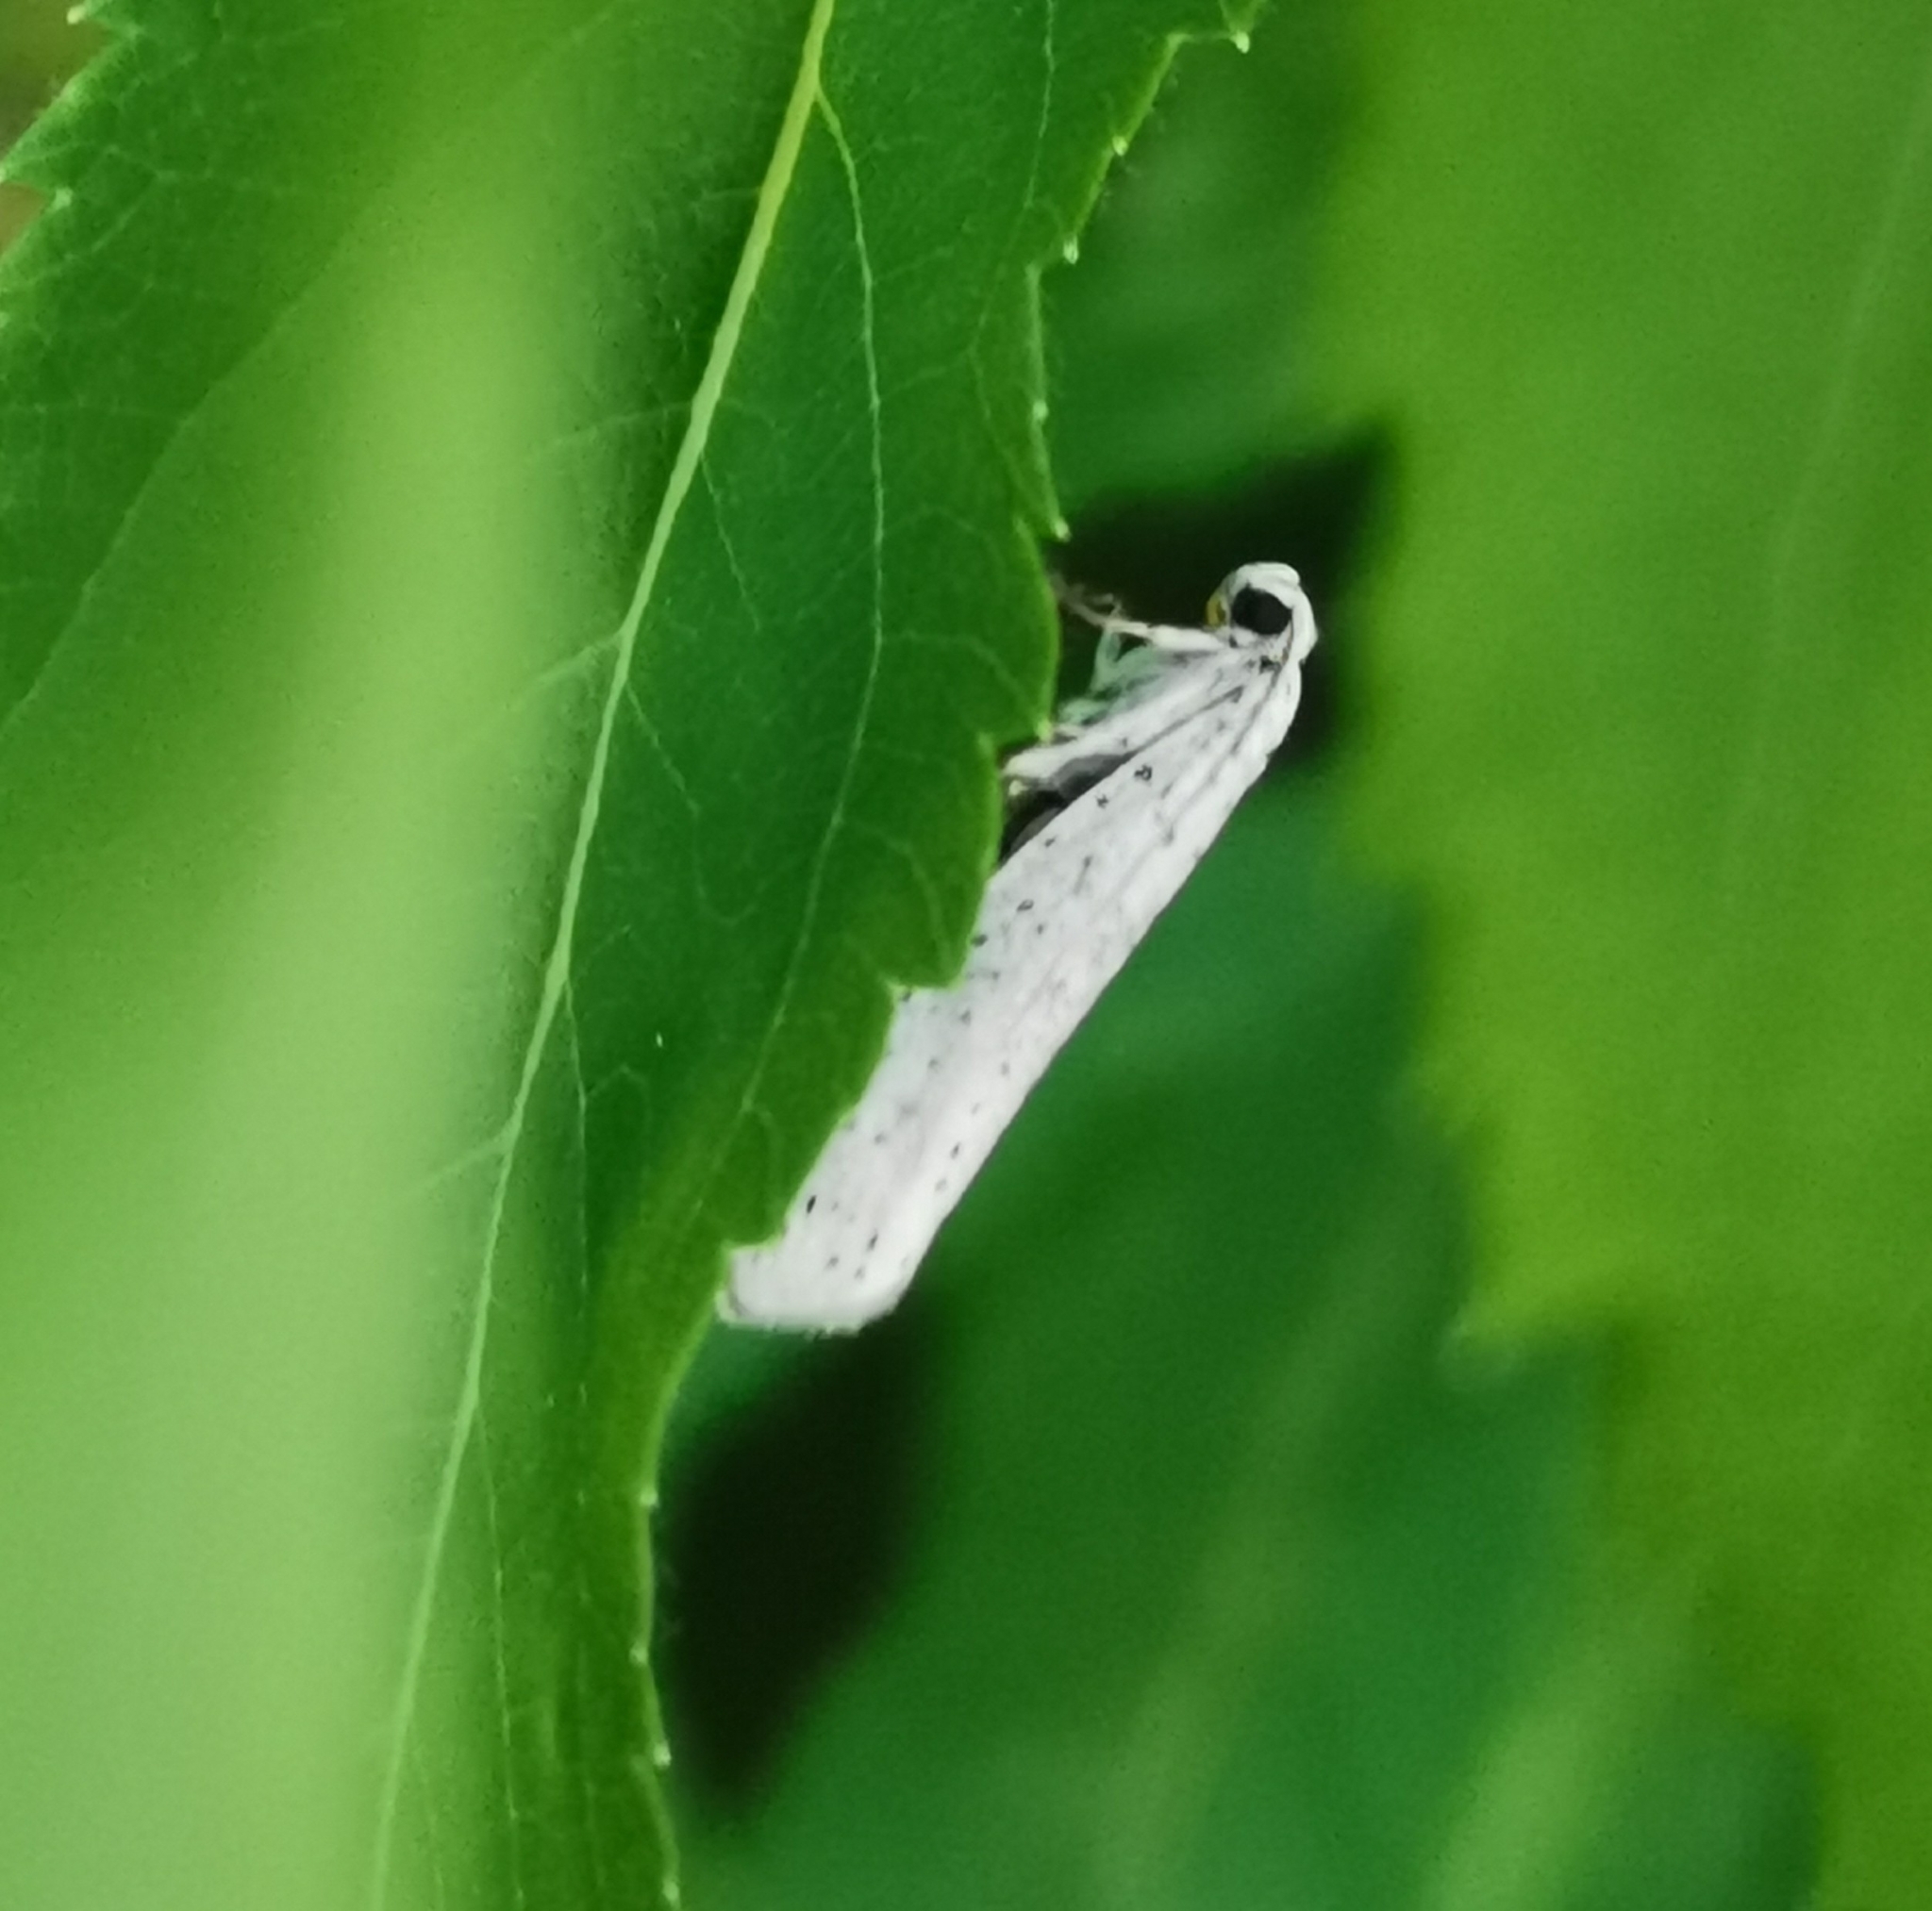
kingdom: Animalia
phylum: Arthropoda
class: Insecta
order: Lepidoptera
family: Yponomeutidae
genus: Yponomeuta
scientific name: Yponomeuta evonymella
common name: Bird-cherry ermine
